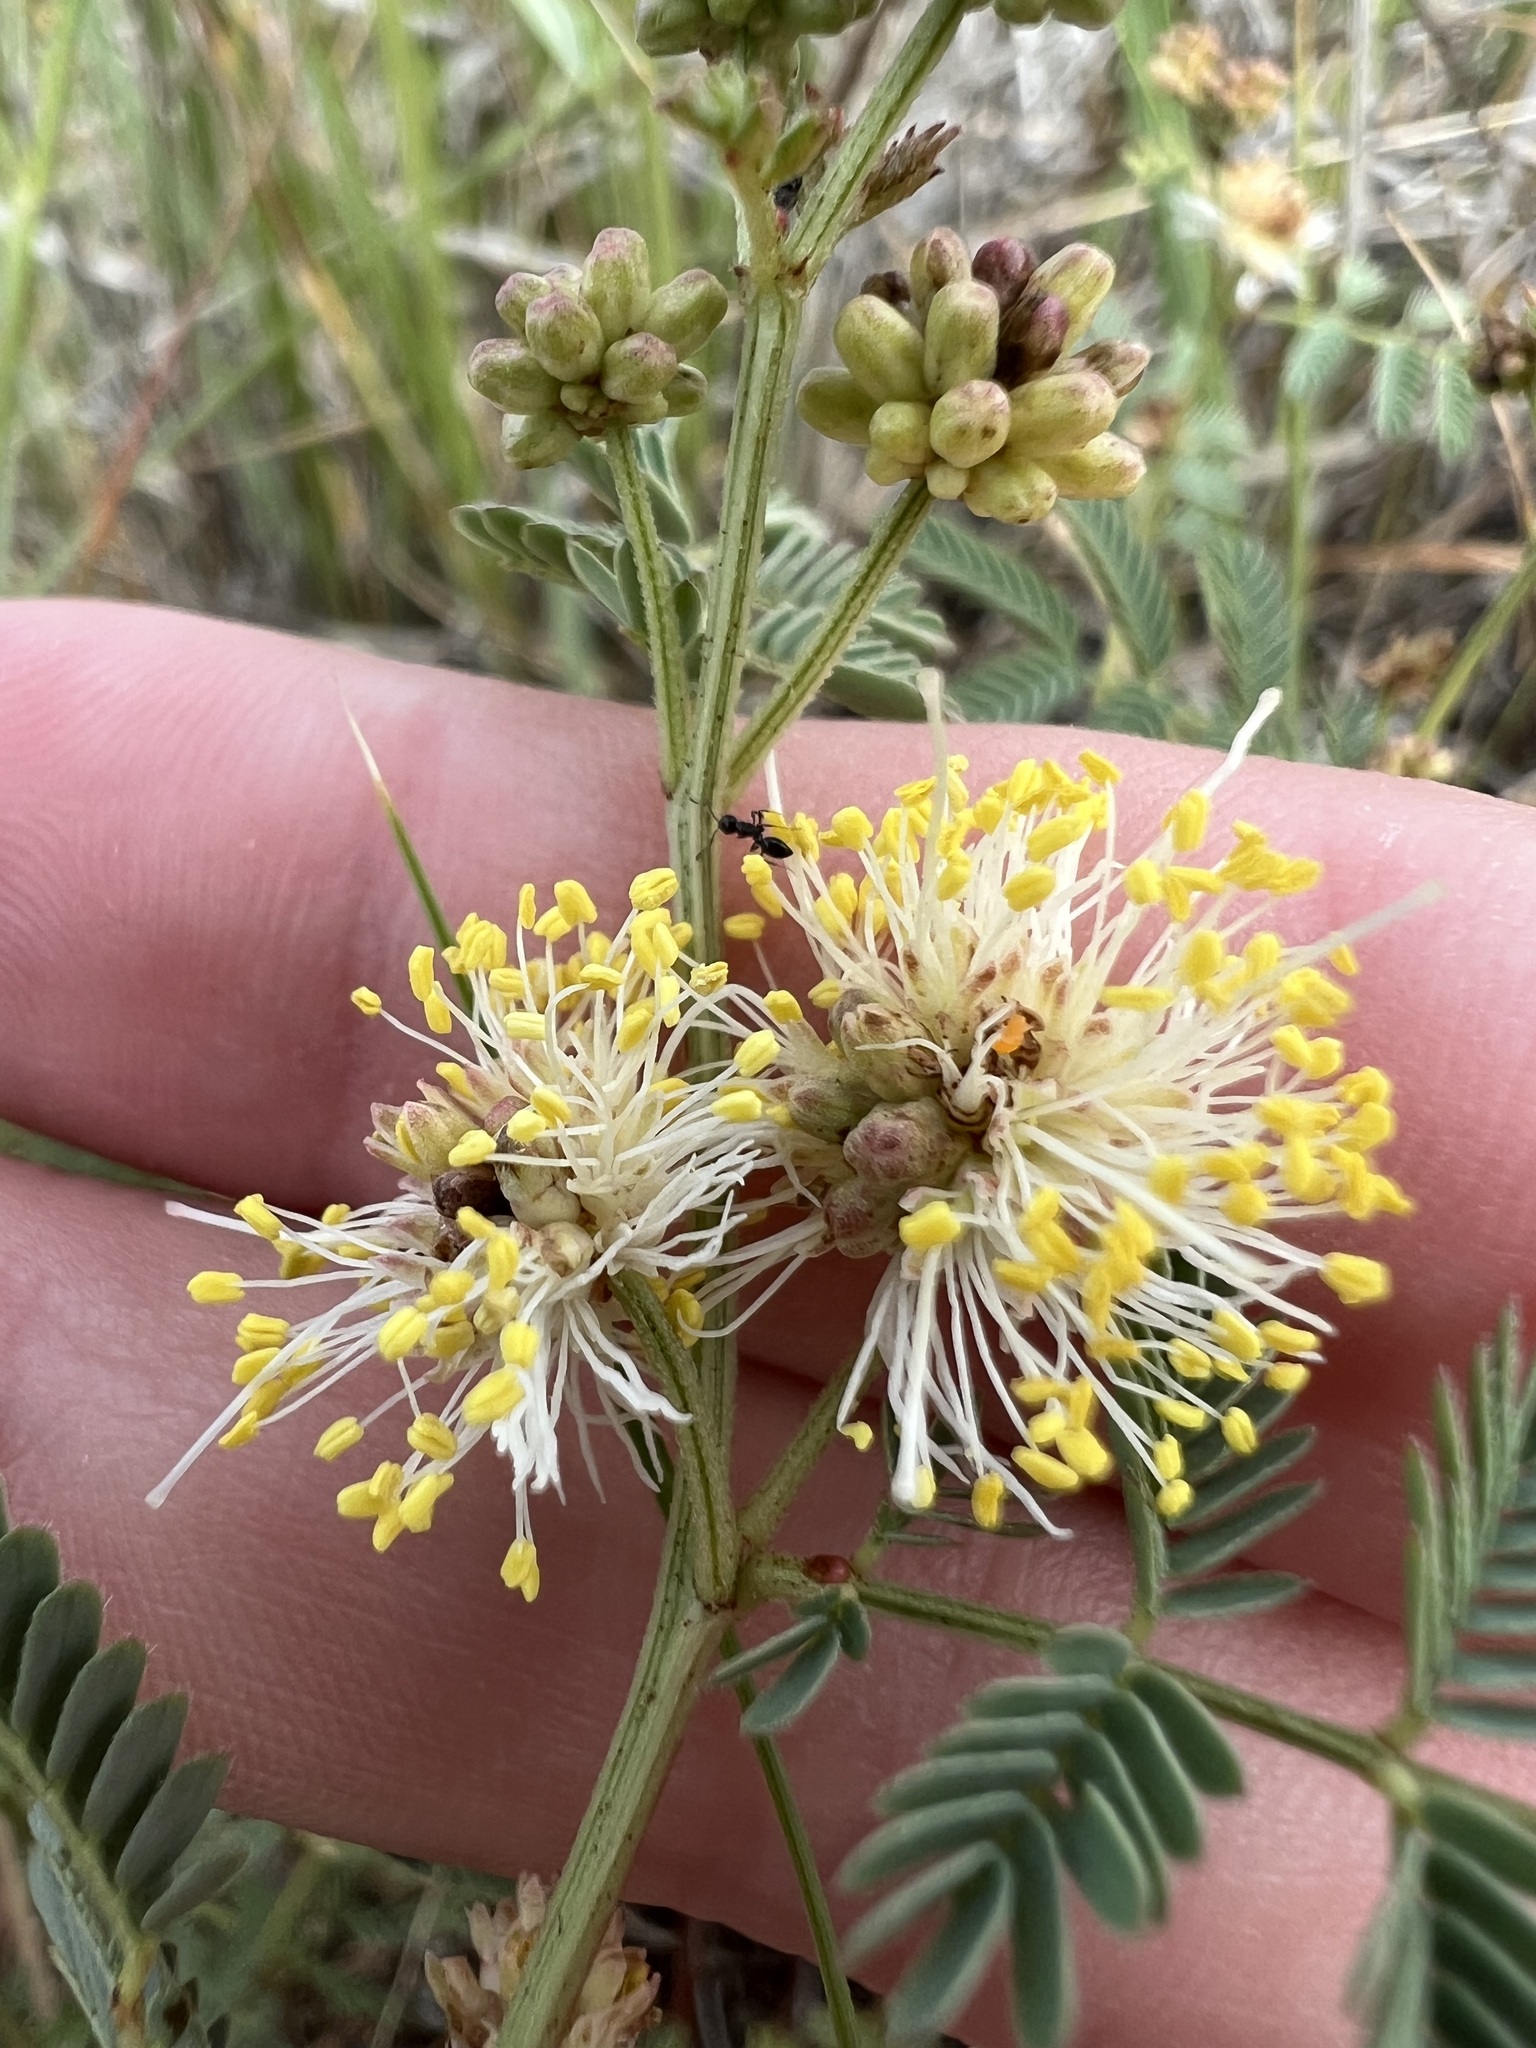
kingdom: Plantae
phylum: Tracheophyta
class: Magnoliopsida
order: Fabales
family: Fabaceae
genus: Desmanthus
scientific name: Desmanthus cooleyi
